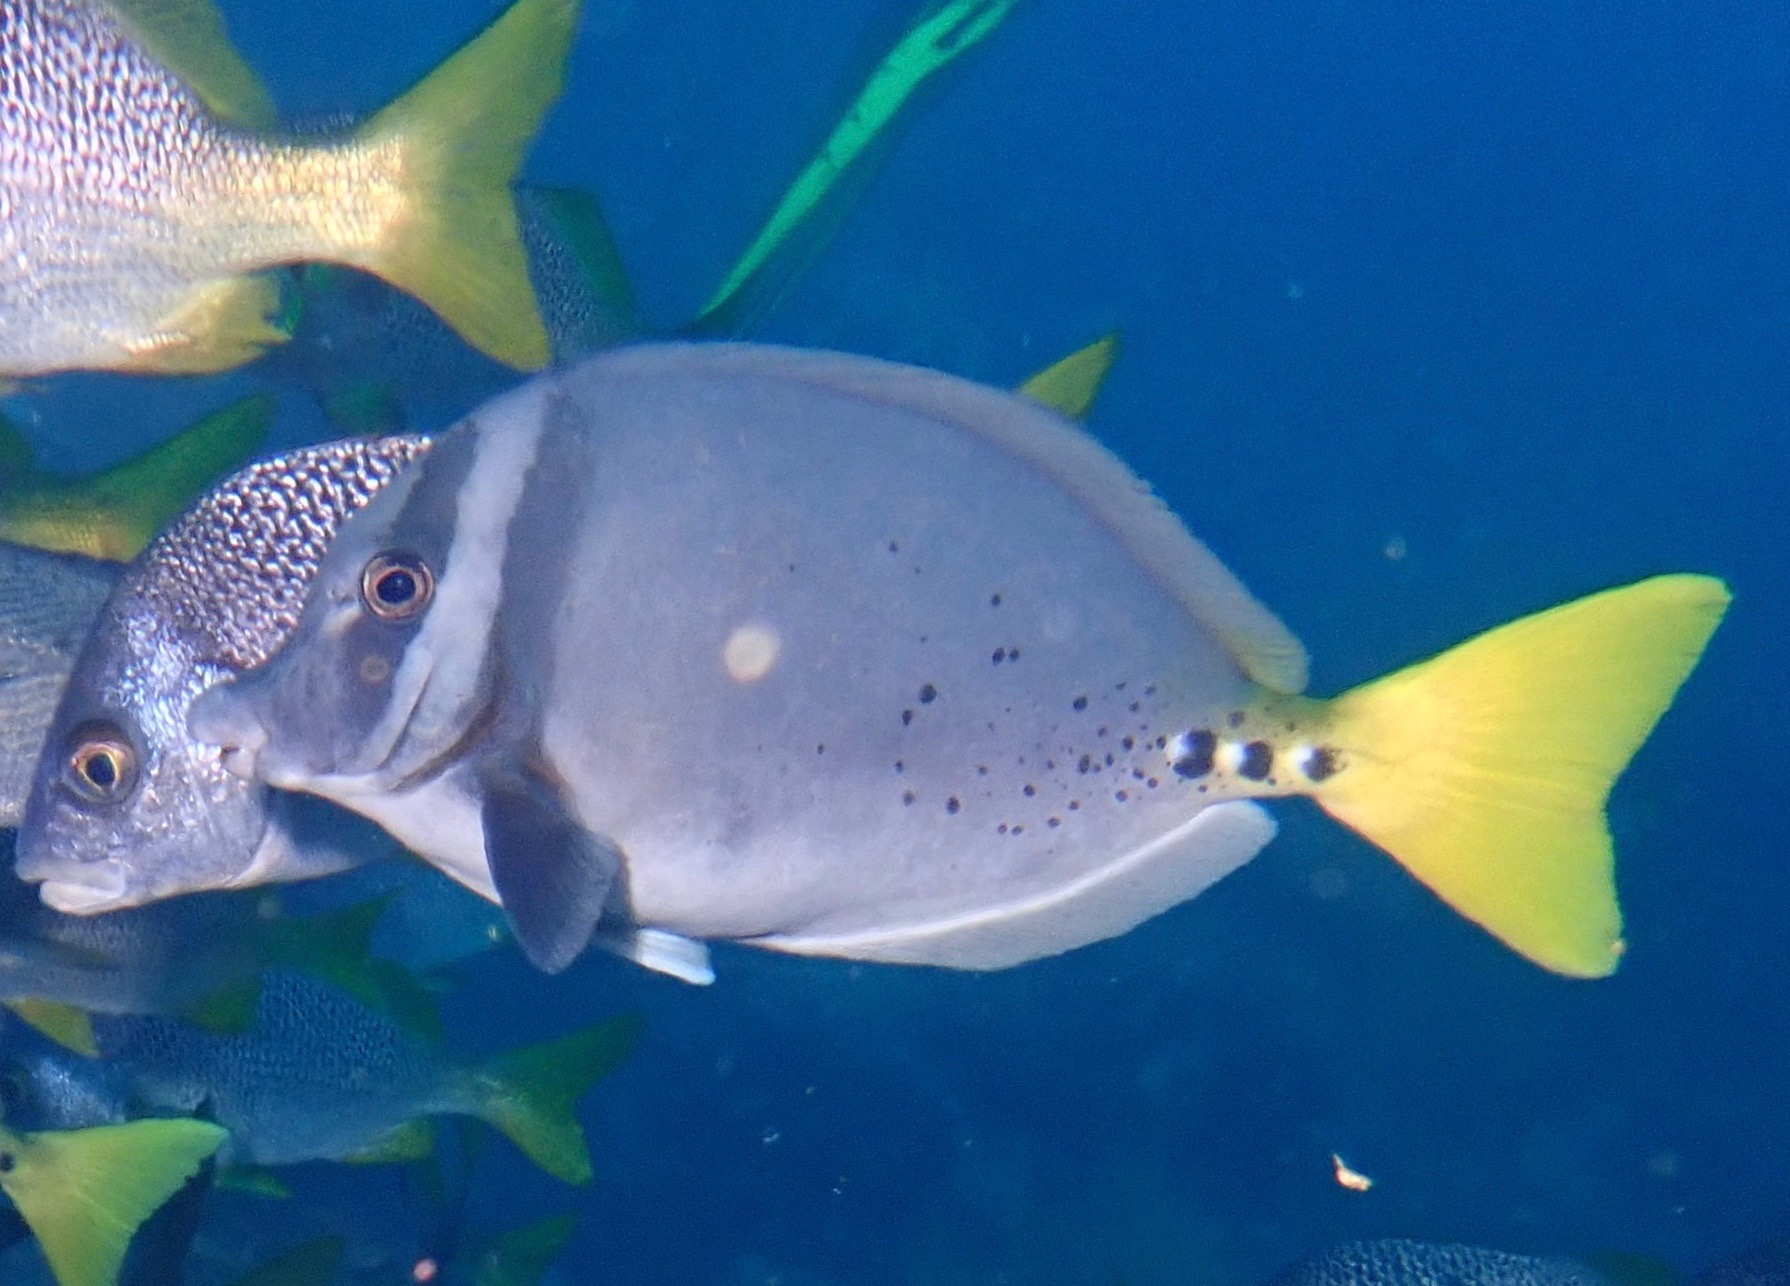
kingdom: Animalia
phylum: Chordata
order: Perciformes
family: Acanthuridae
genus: Prionurus
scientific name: Prionurus laticlavius
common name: Razor surgeonfish
